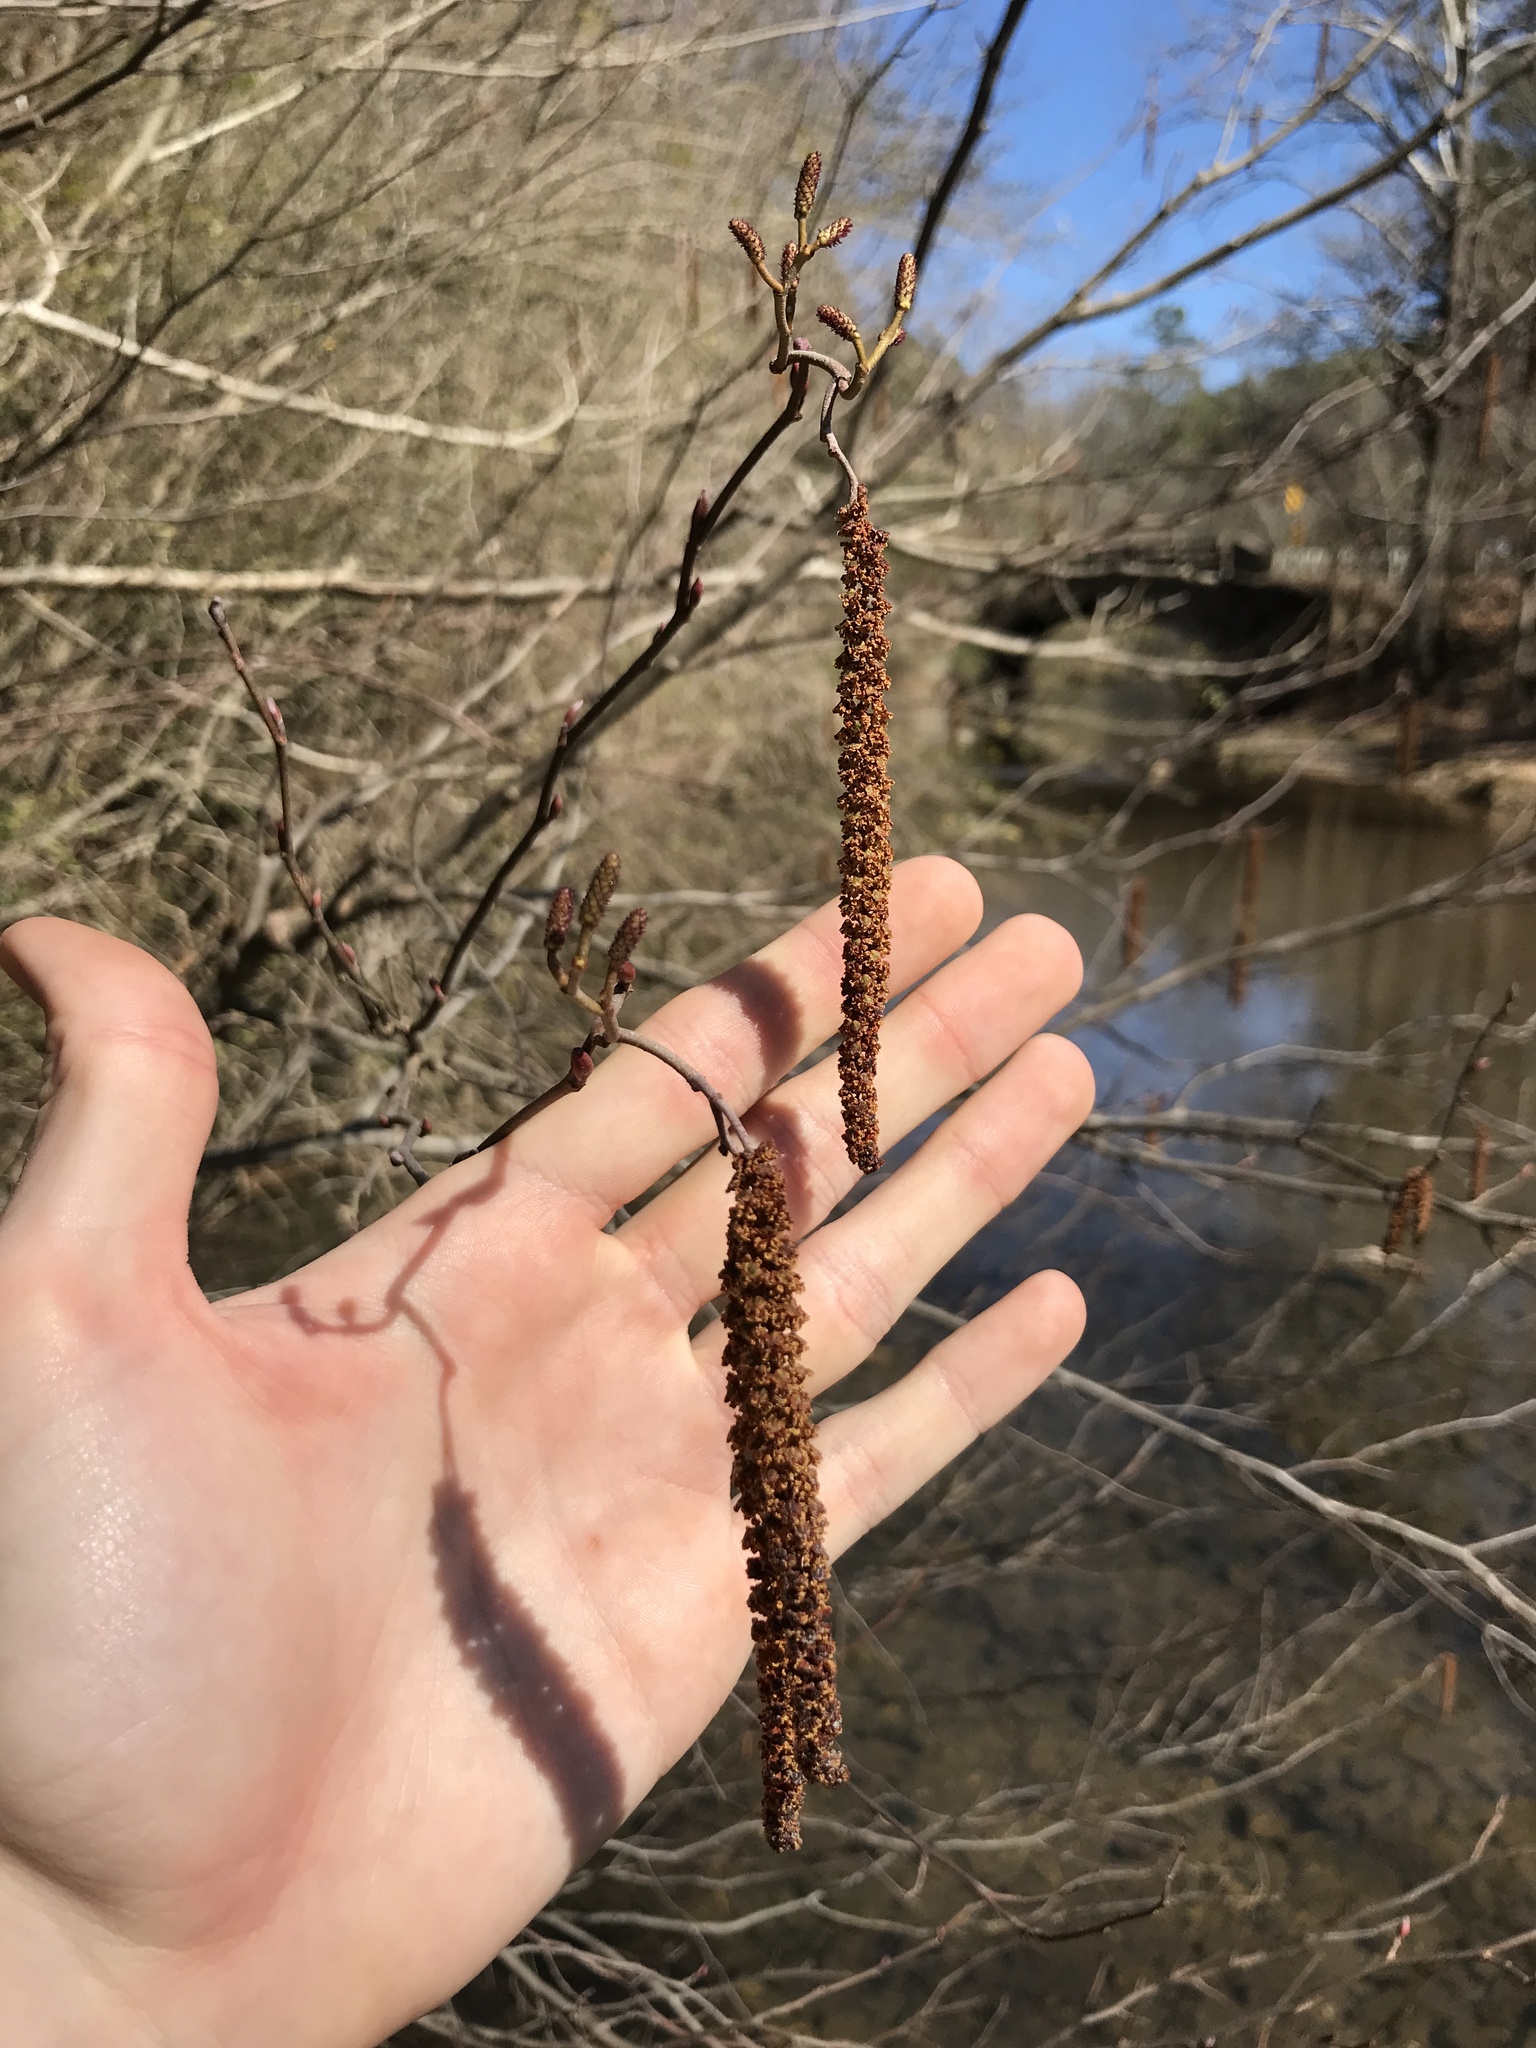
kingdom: Plantae
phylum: Tracheophyta
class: Magnoliopsida
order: Fagales
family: Betulaceae
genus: Alnus
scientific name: Alnus serrulata
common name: Hazel alder
